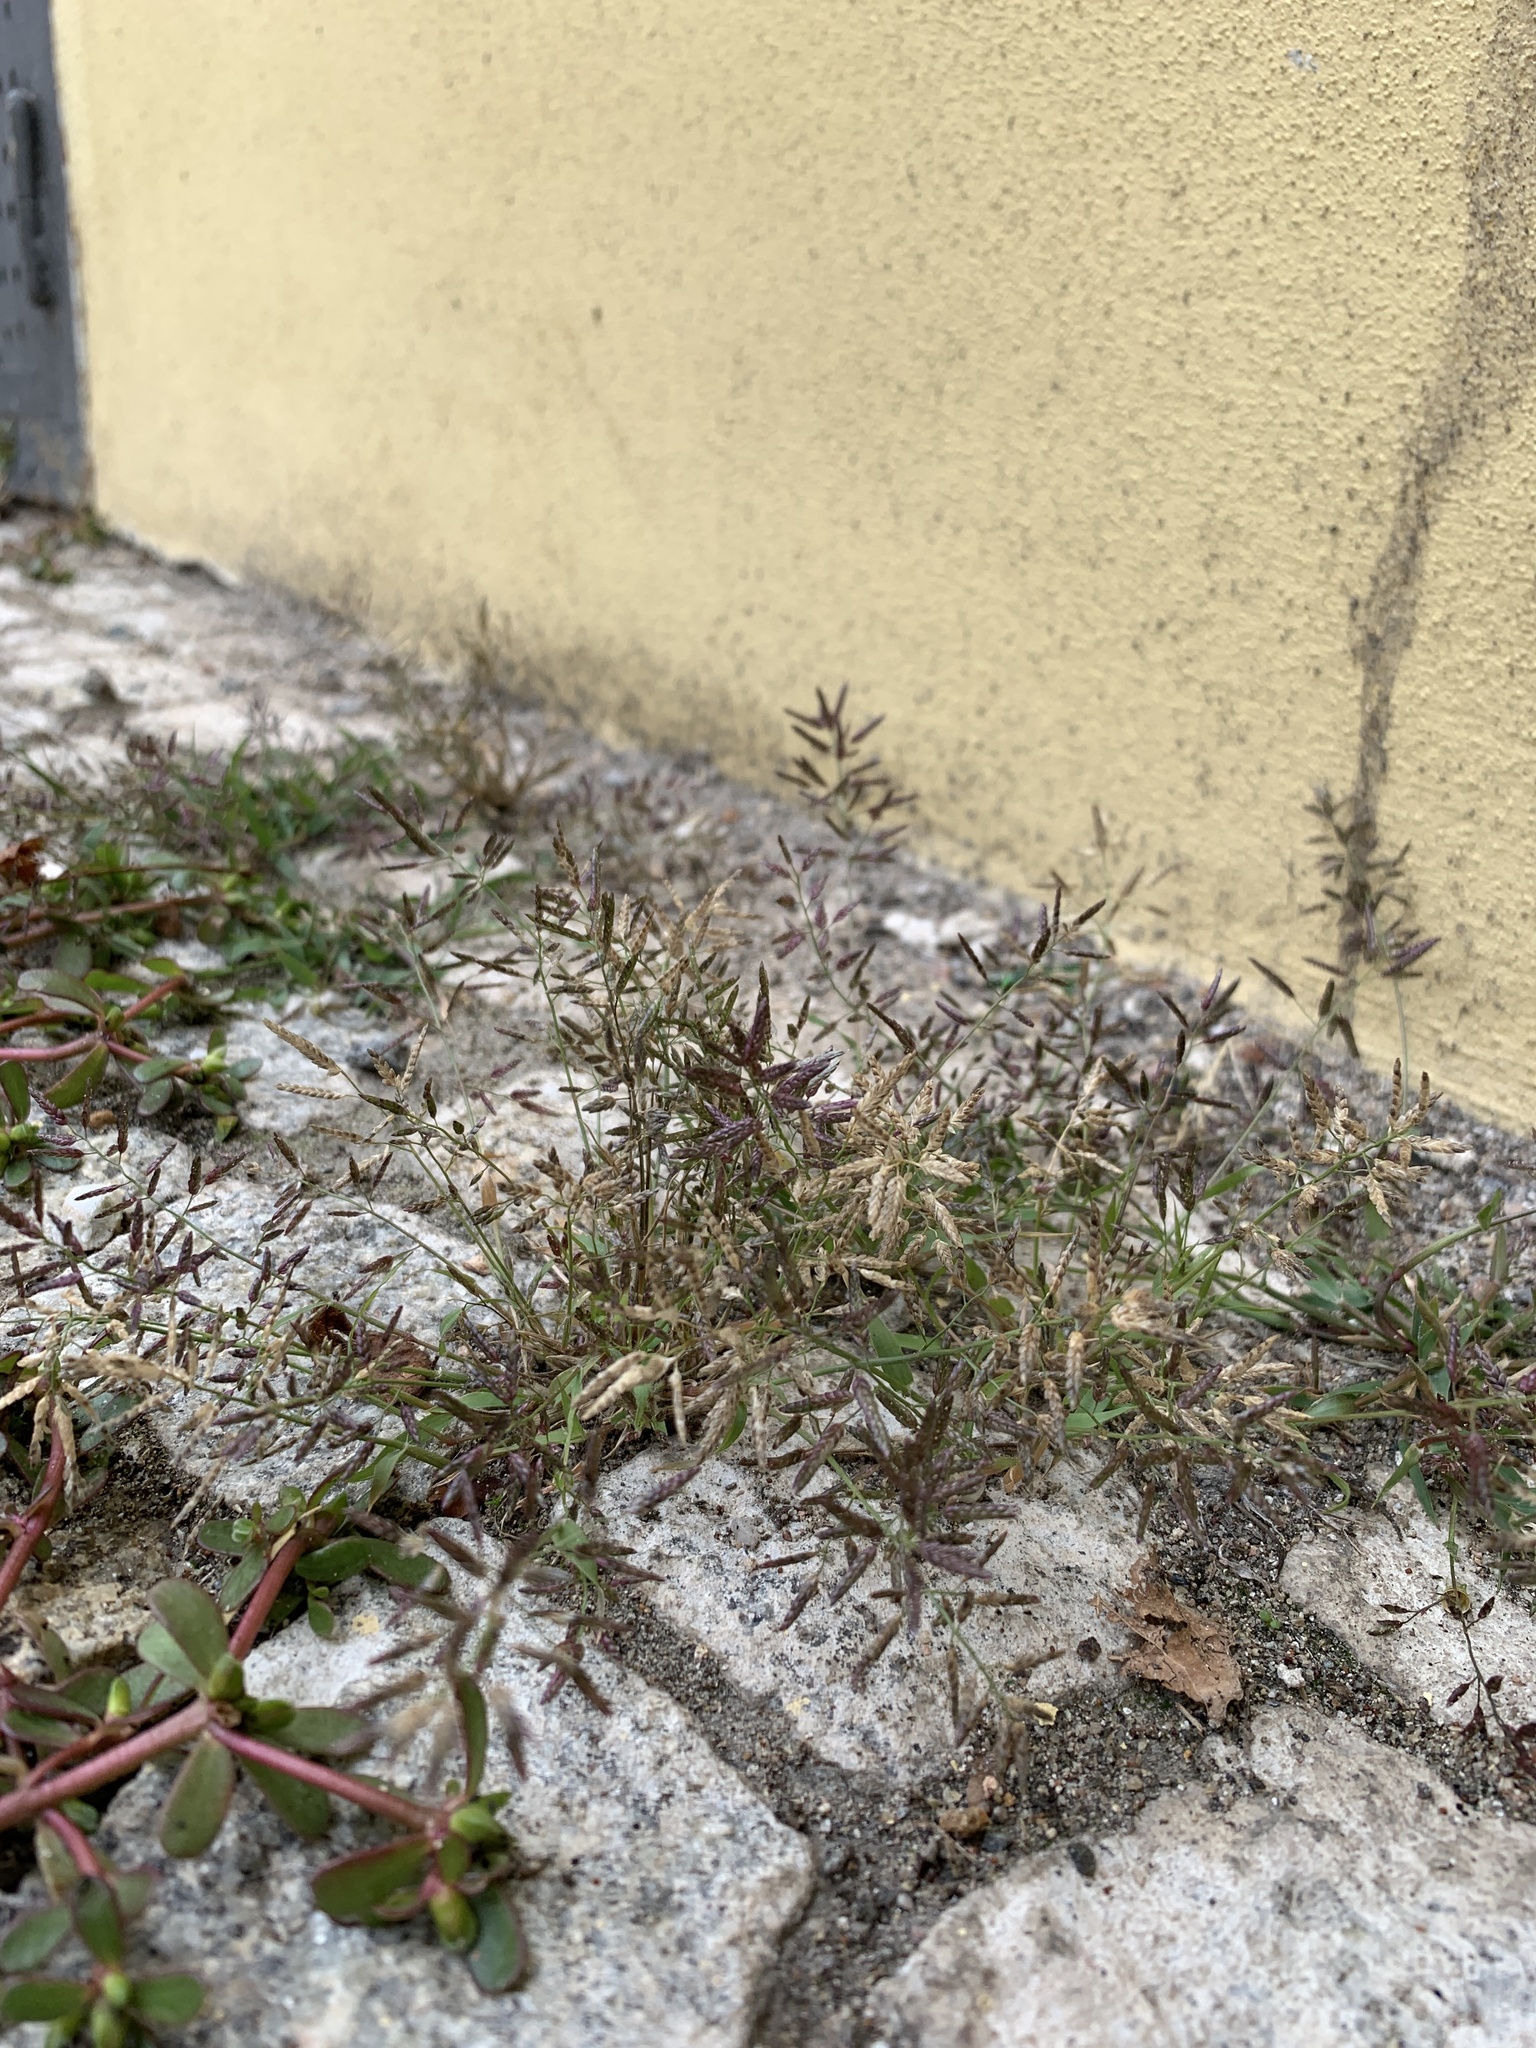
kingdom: Plantae
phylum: Tracheophyta
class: Liliopsida
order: Poales
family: Poaceae
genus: Eragrostis
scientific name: Eragrostis minor
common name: Small love-grass
